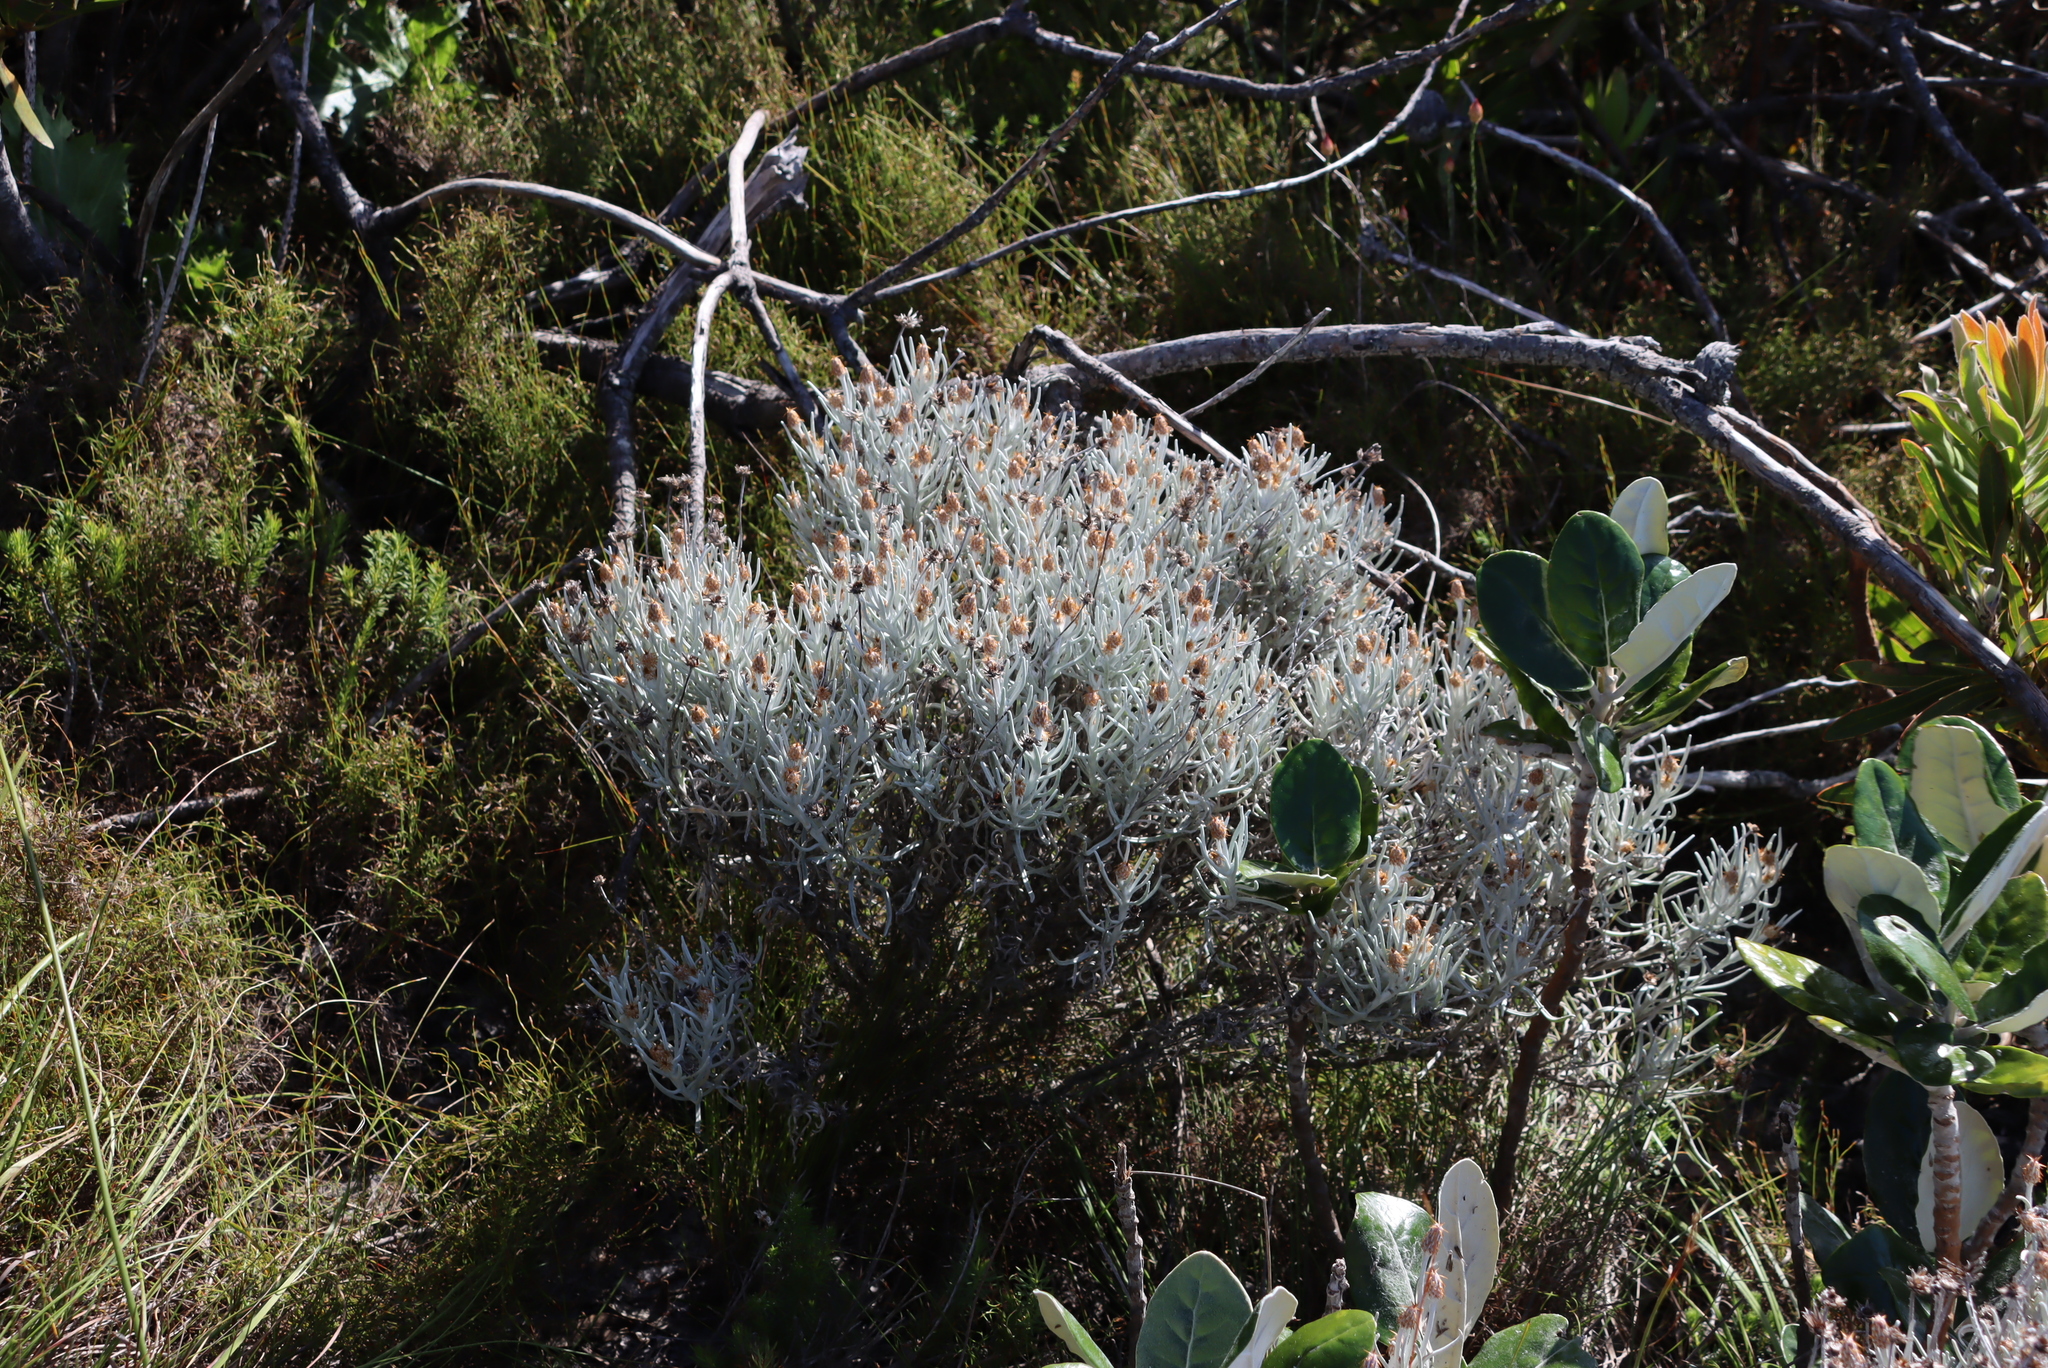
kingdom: Plantae
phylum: Tracheophyta
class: Magnoliopsida
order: Asterales
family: Asteraceae
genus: Syncarpha
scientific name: Syncarpha gnaphaloides
